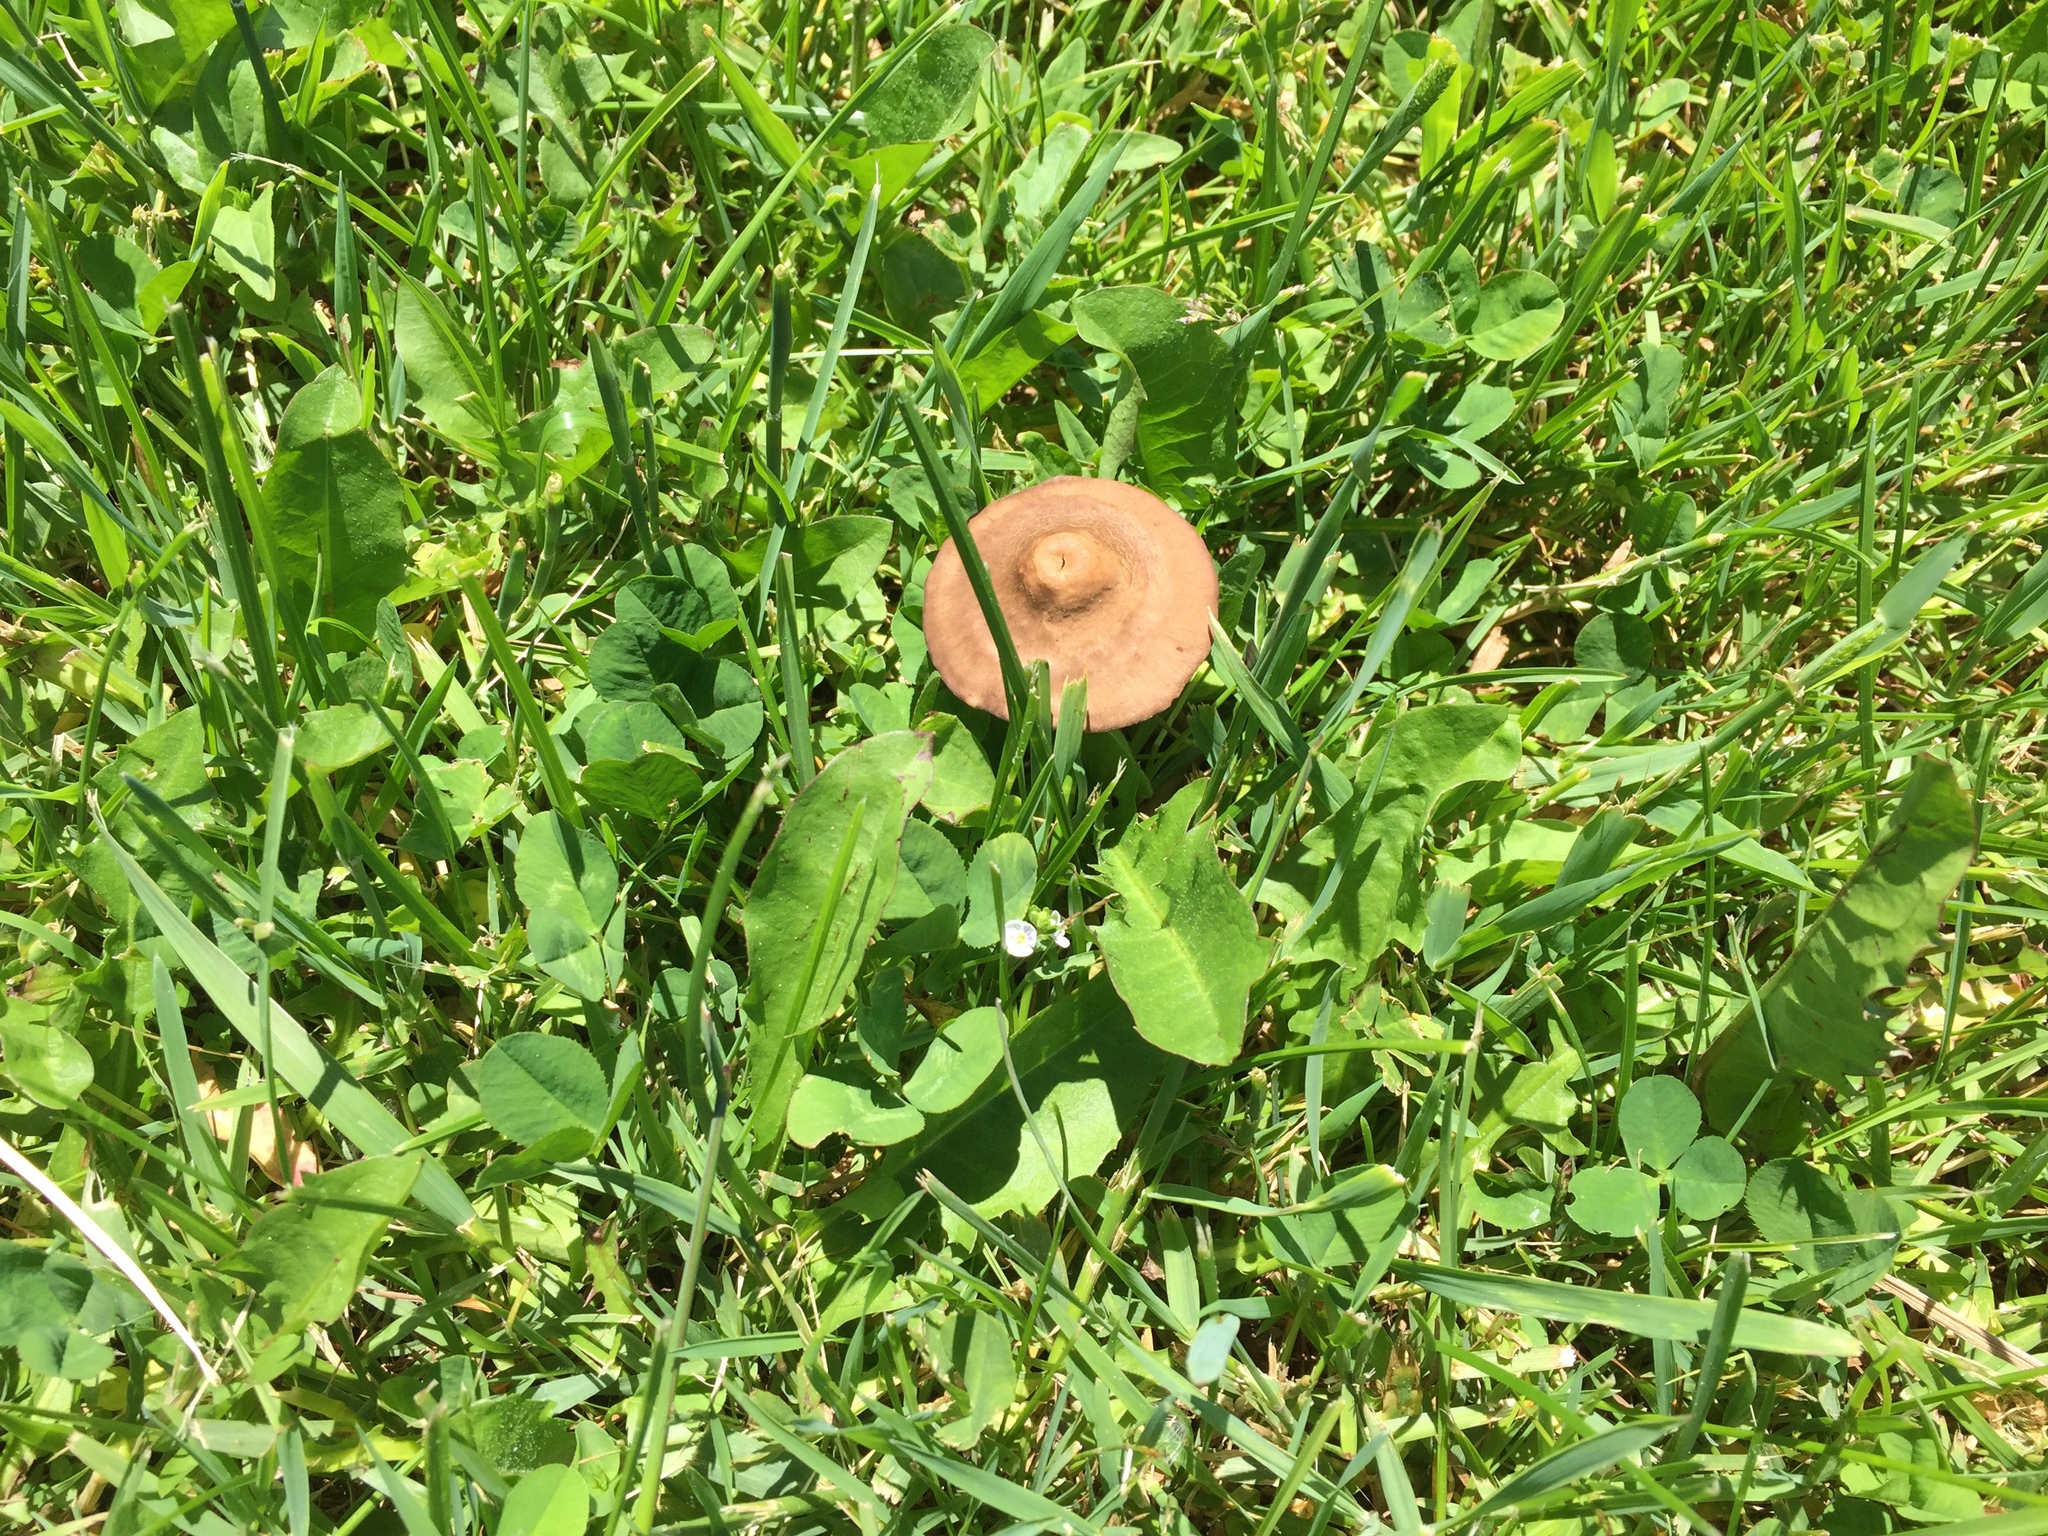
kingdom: Fungi
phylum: Basidiomycota
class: Agaricomycetes
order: Agaricales
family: Bolbitiaceae
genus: Panaeolina
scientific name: Panaeolina foenisecii
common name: Brown hay cap
